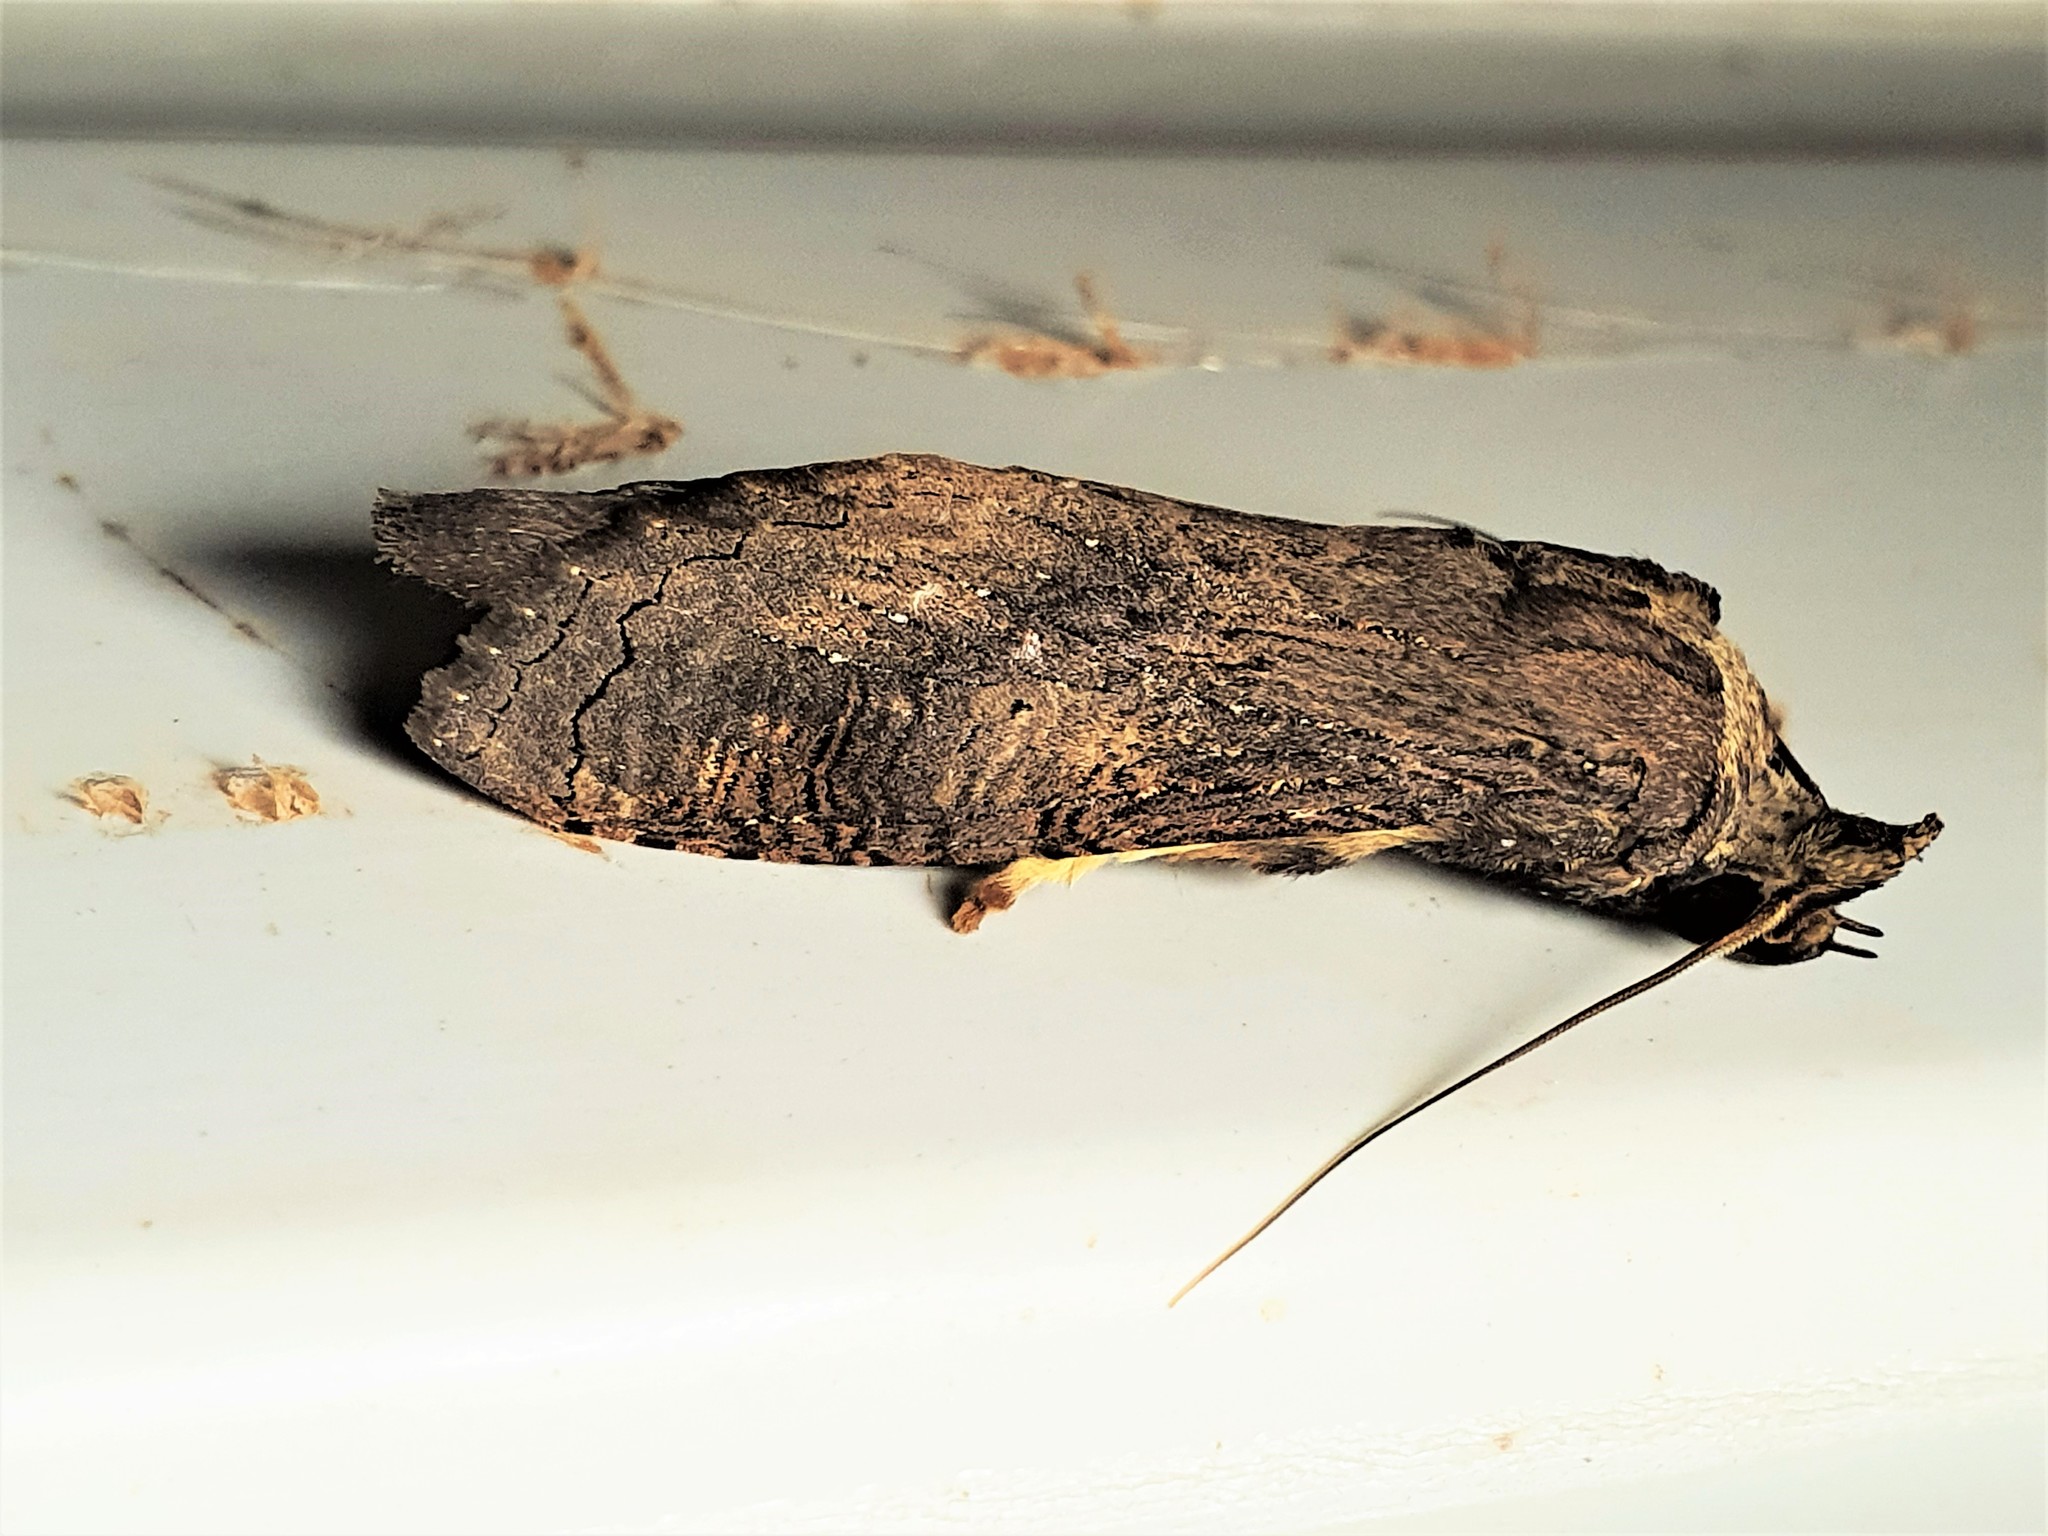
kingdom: Animalia
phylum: Arthropoda
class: Insecta
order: Lepidoptera
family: Notodontidae
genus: Nystalea
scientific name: Nystalea superciliosa
